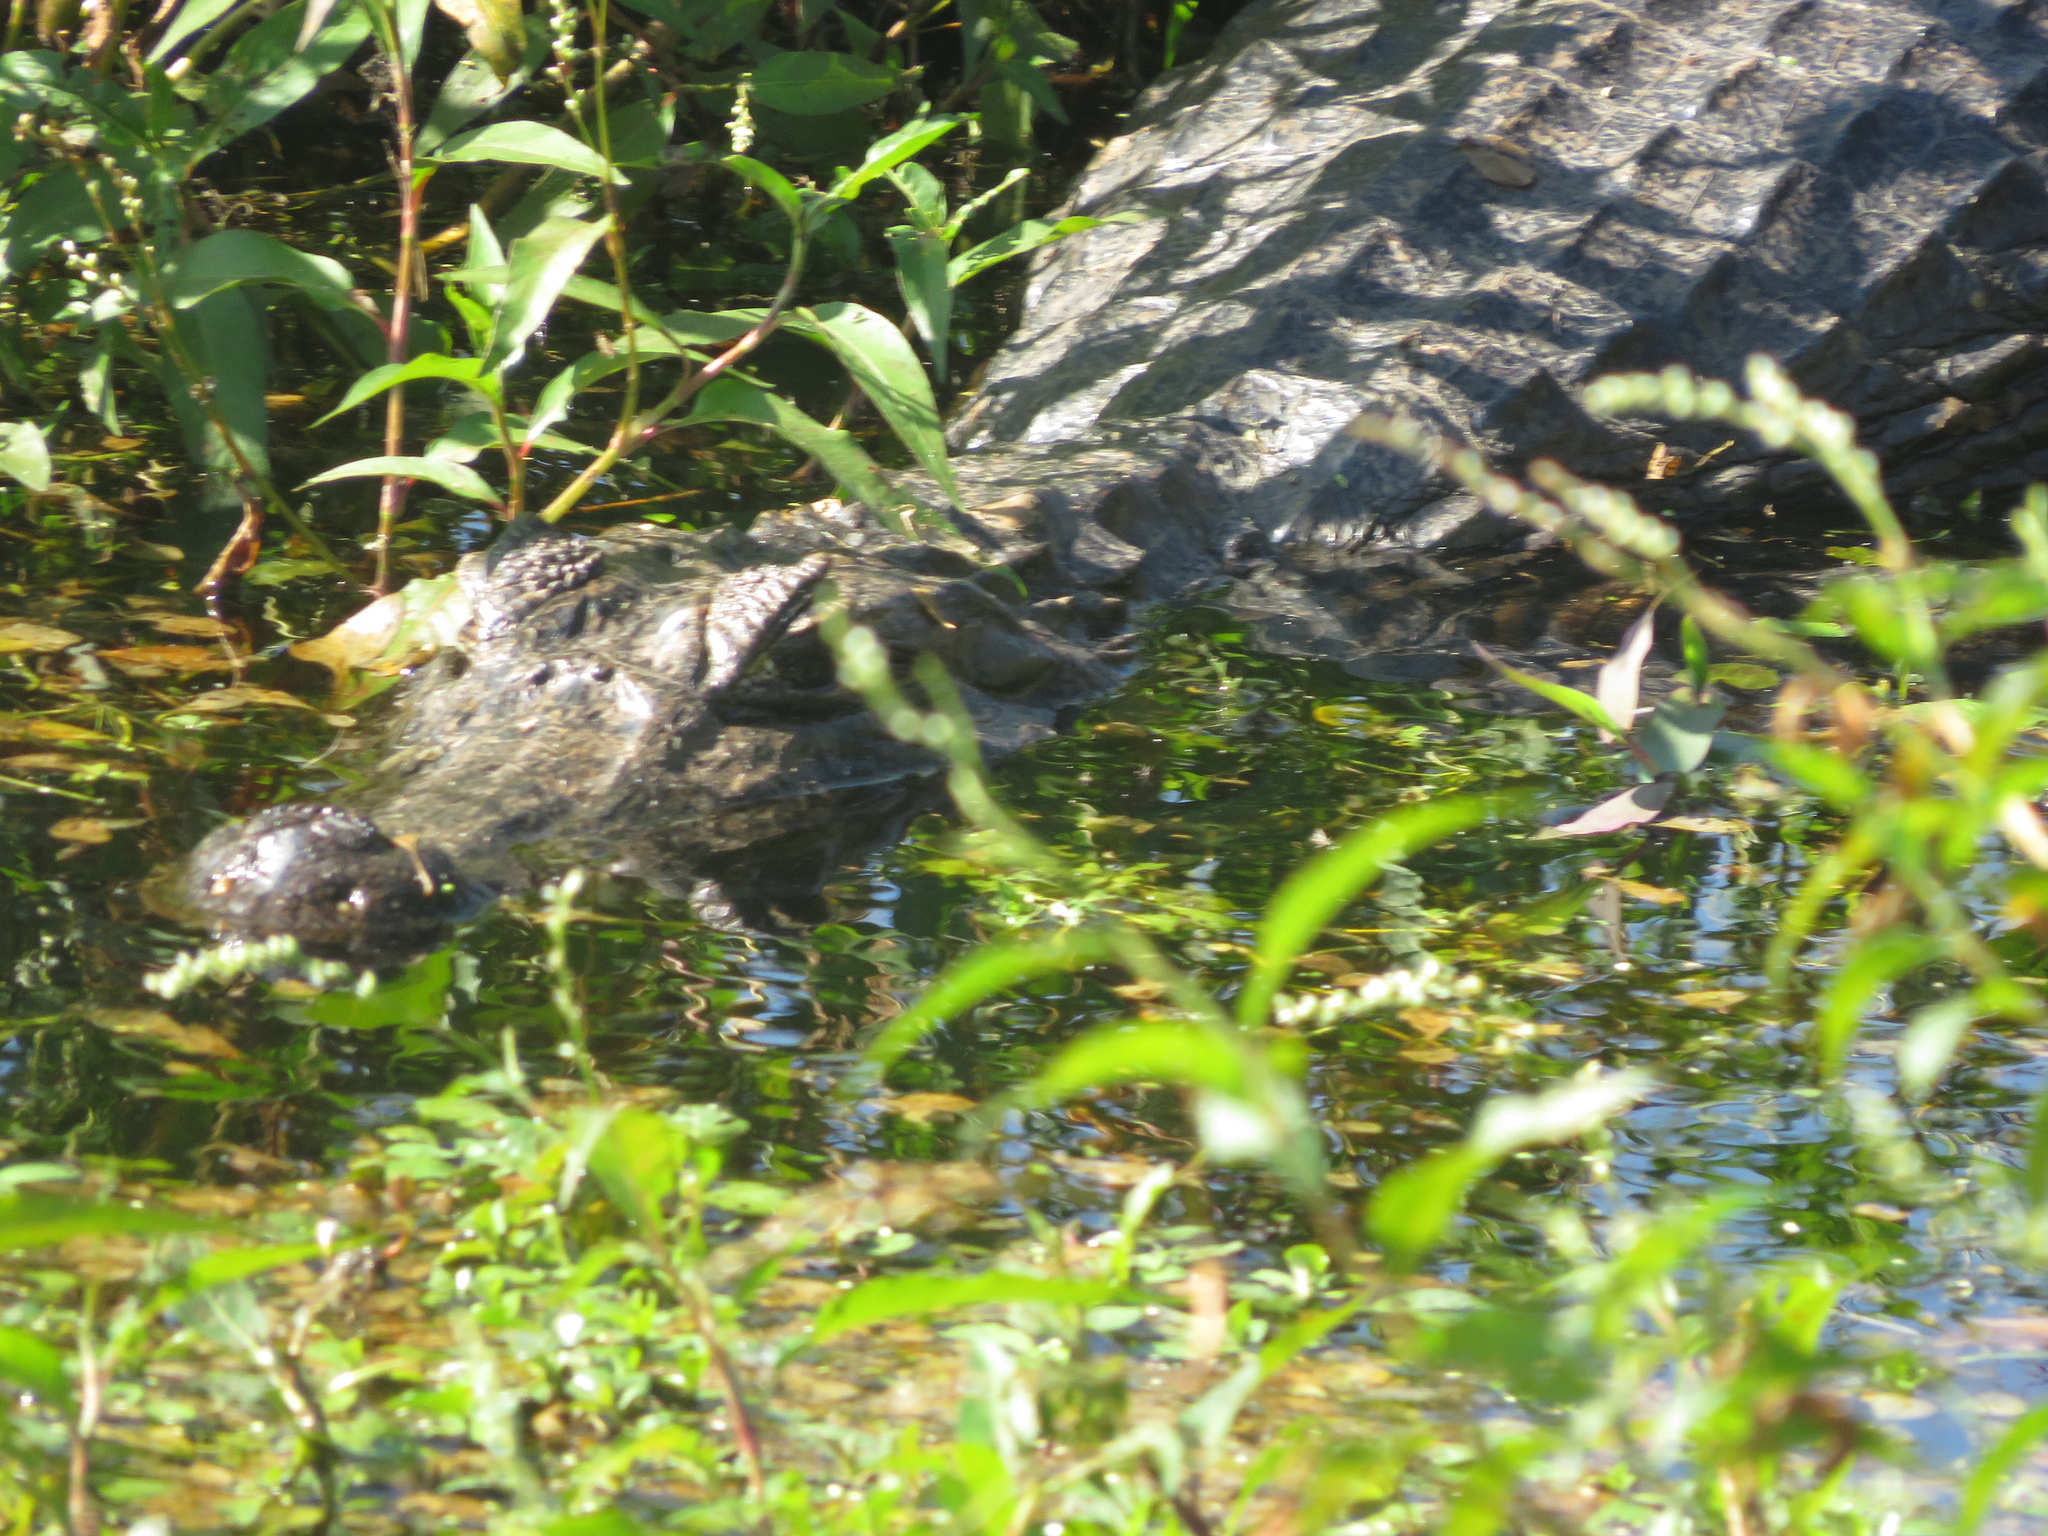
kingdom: Animalia
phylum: Chordata
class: Crocodylia
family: Alligatoridae
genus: Caiman
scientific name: Caiman yacare
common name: Yacare caiman
